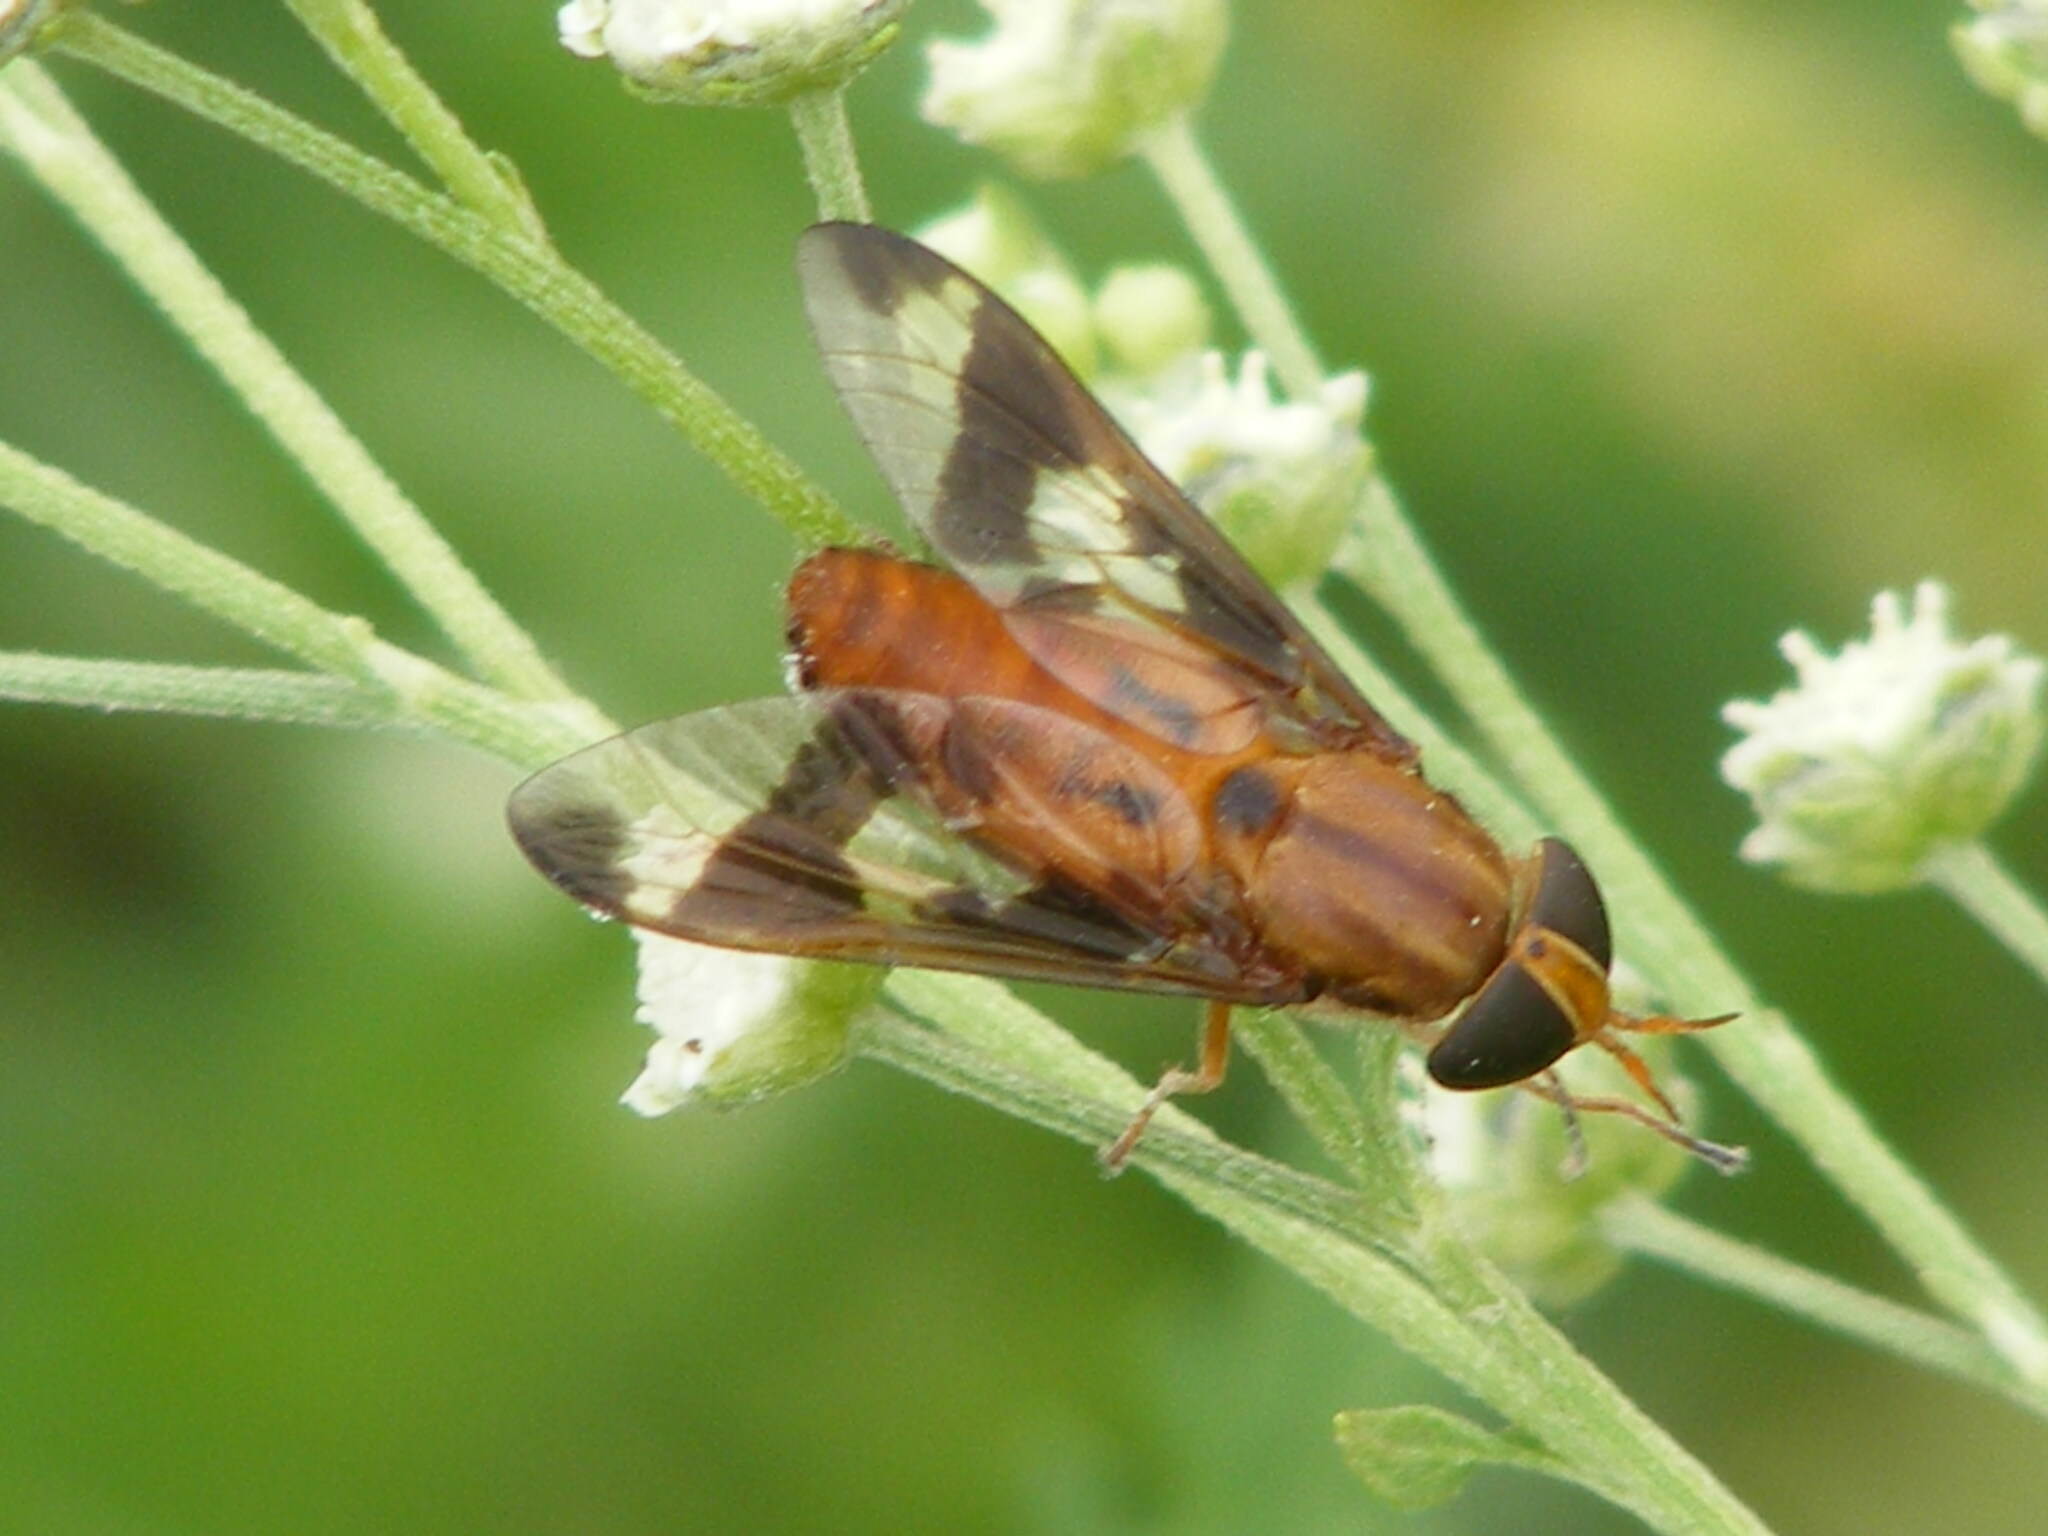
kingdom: Animalia
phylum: Arthropoda
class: Insecta
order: Diptera
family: Tabanidae
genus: Tabanocella
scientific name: Tabanocella denticornis
